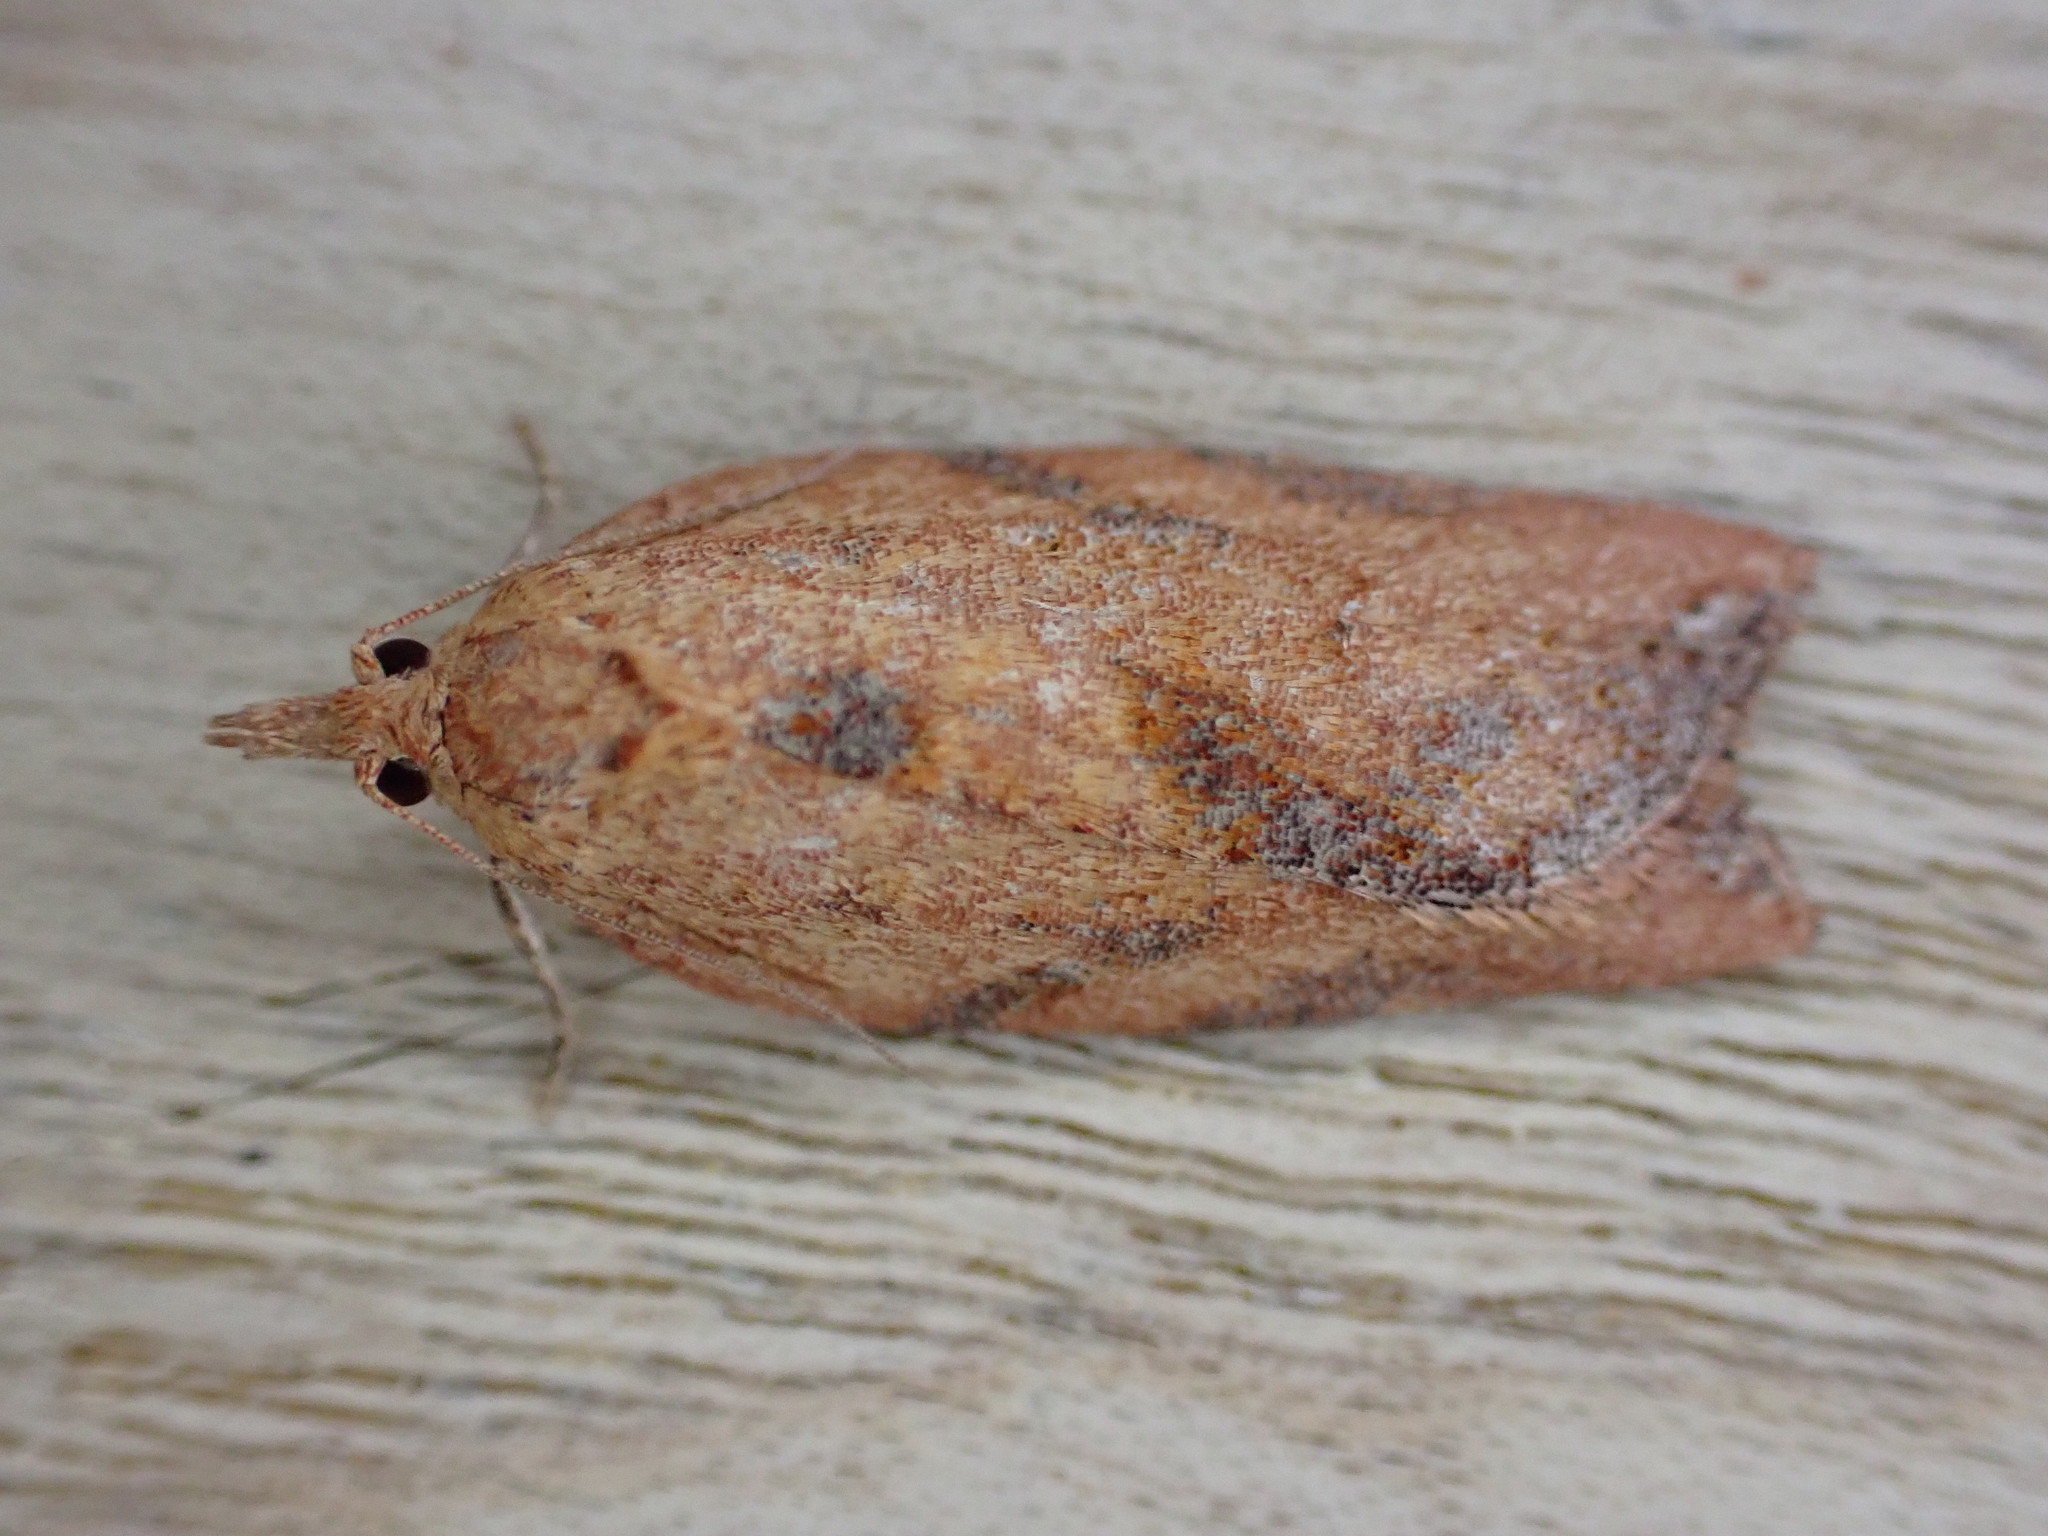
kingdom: Animalia
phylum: Arthropoda
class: Insecta
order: Lepidoptera
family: Tortricidae
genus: Epiphyas
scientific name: Epiphyas postvittana
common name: Light brown apple moth
